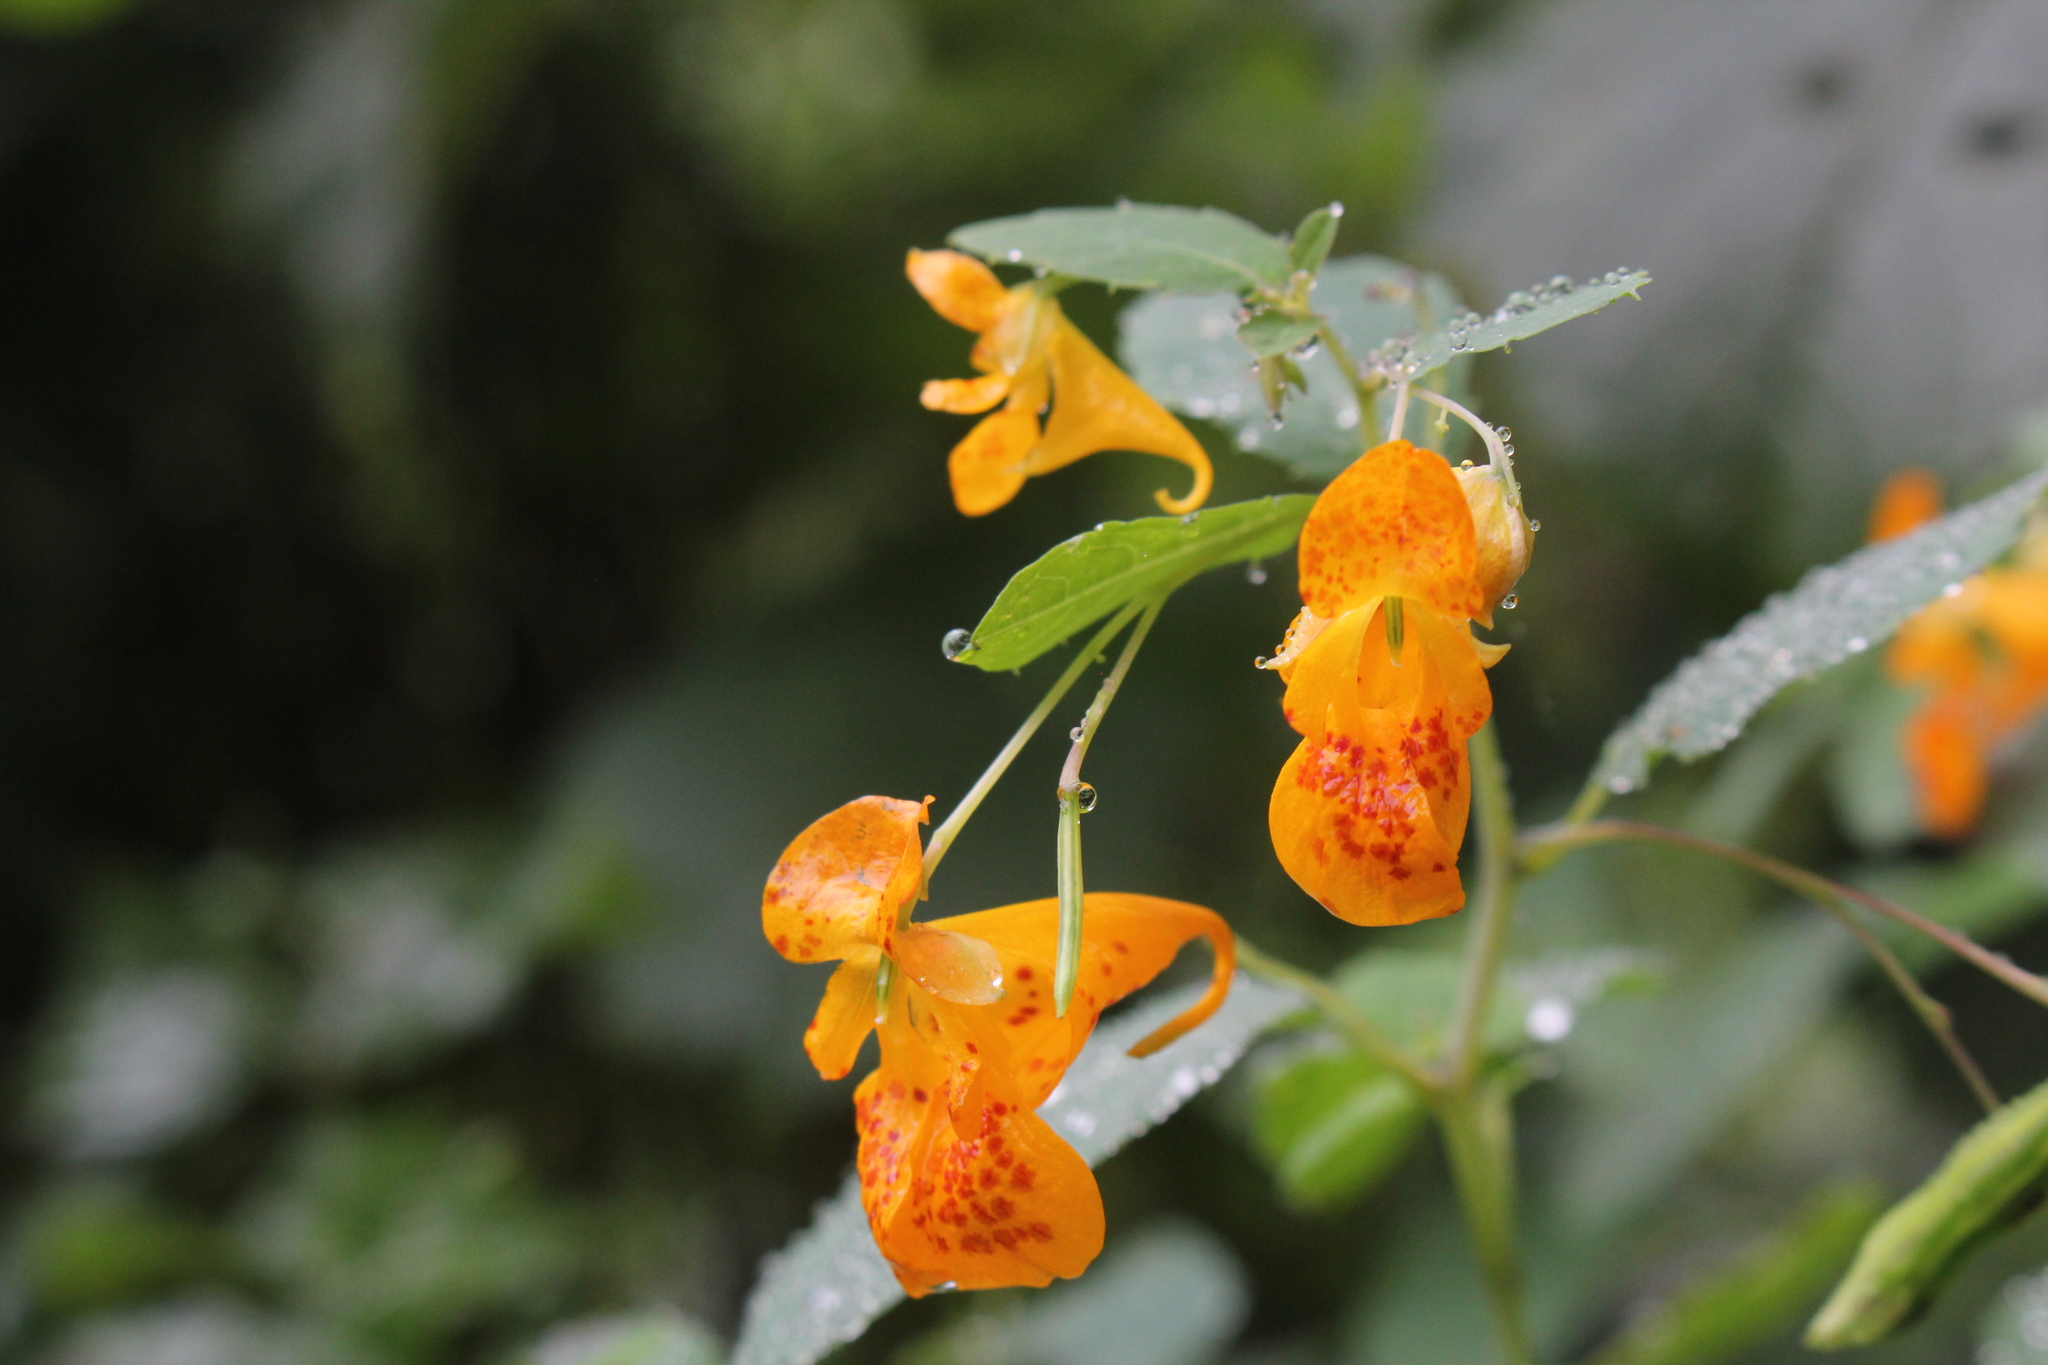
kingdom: Plantae
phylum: Tracheophyta
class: Magnoliopsida
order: Ericales
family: Balsaminaceae
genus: Impatiens
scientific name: Impatiens capensis
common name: Orange balsam
